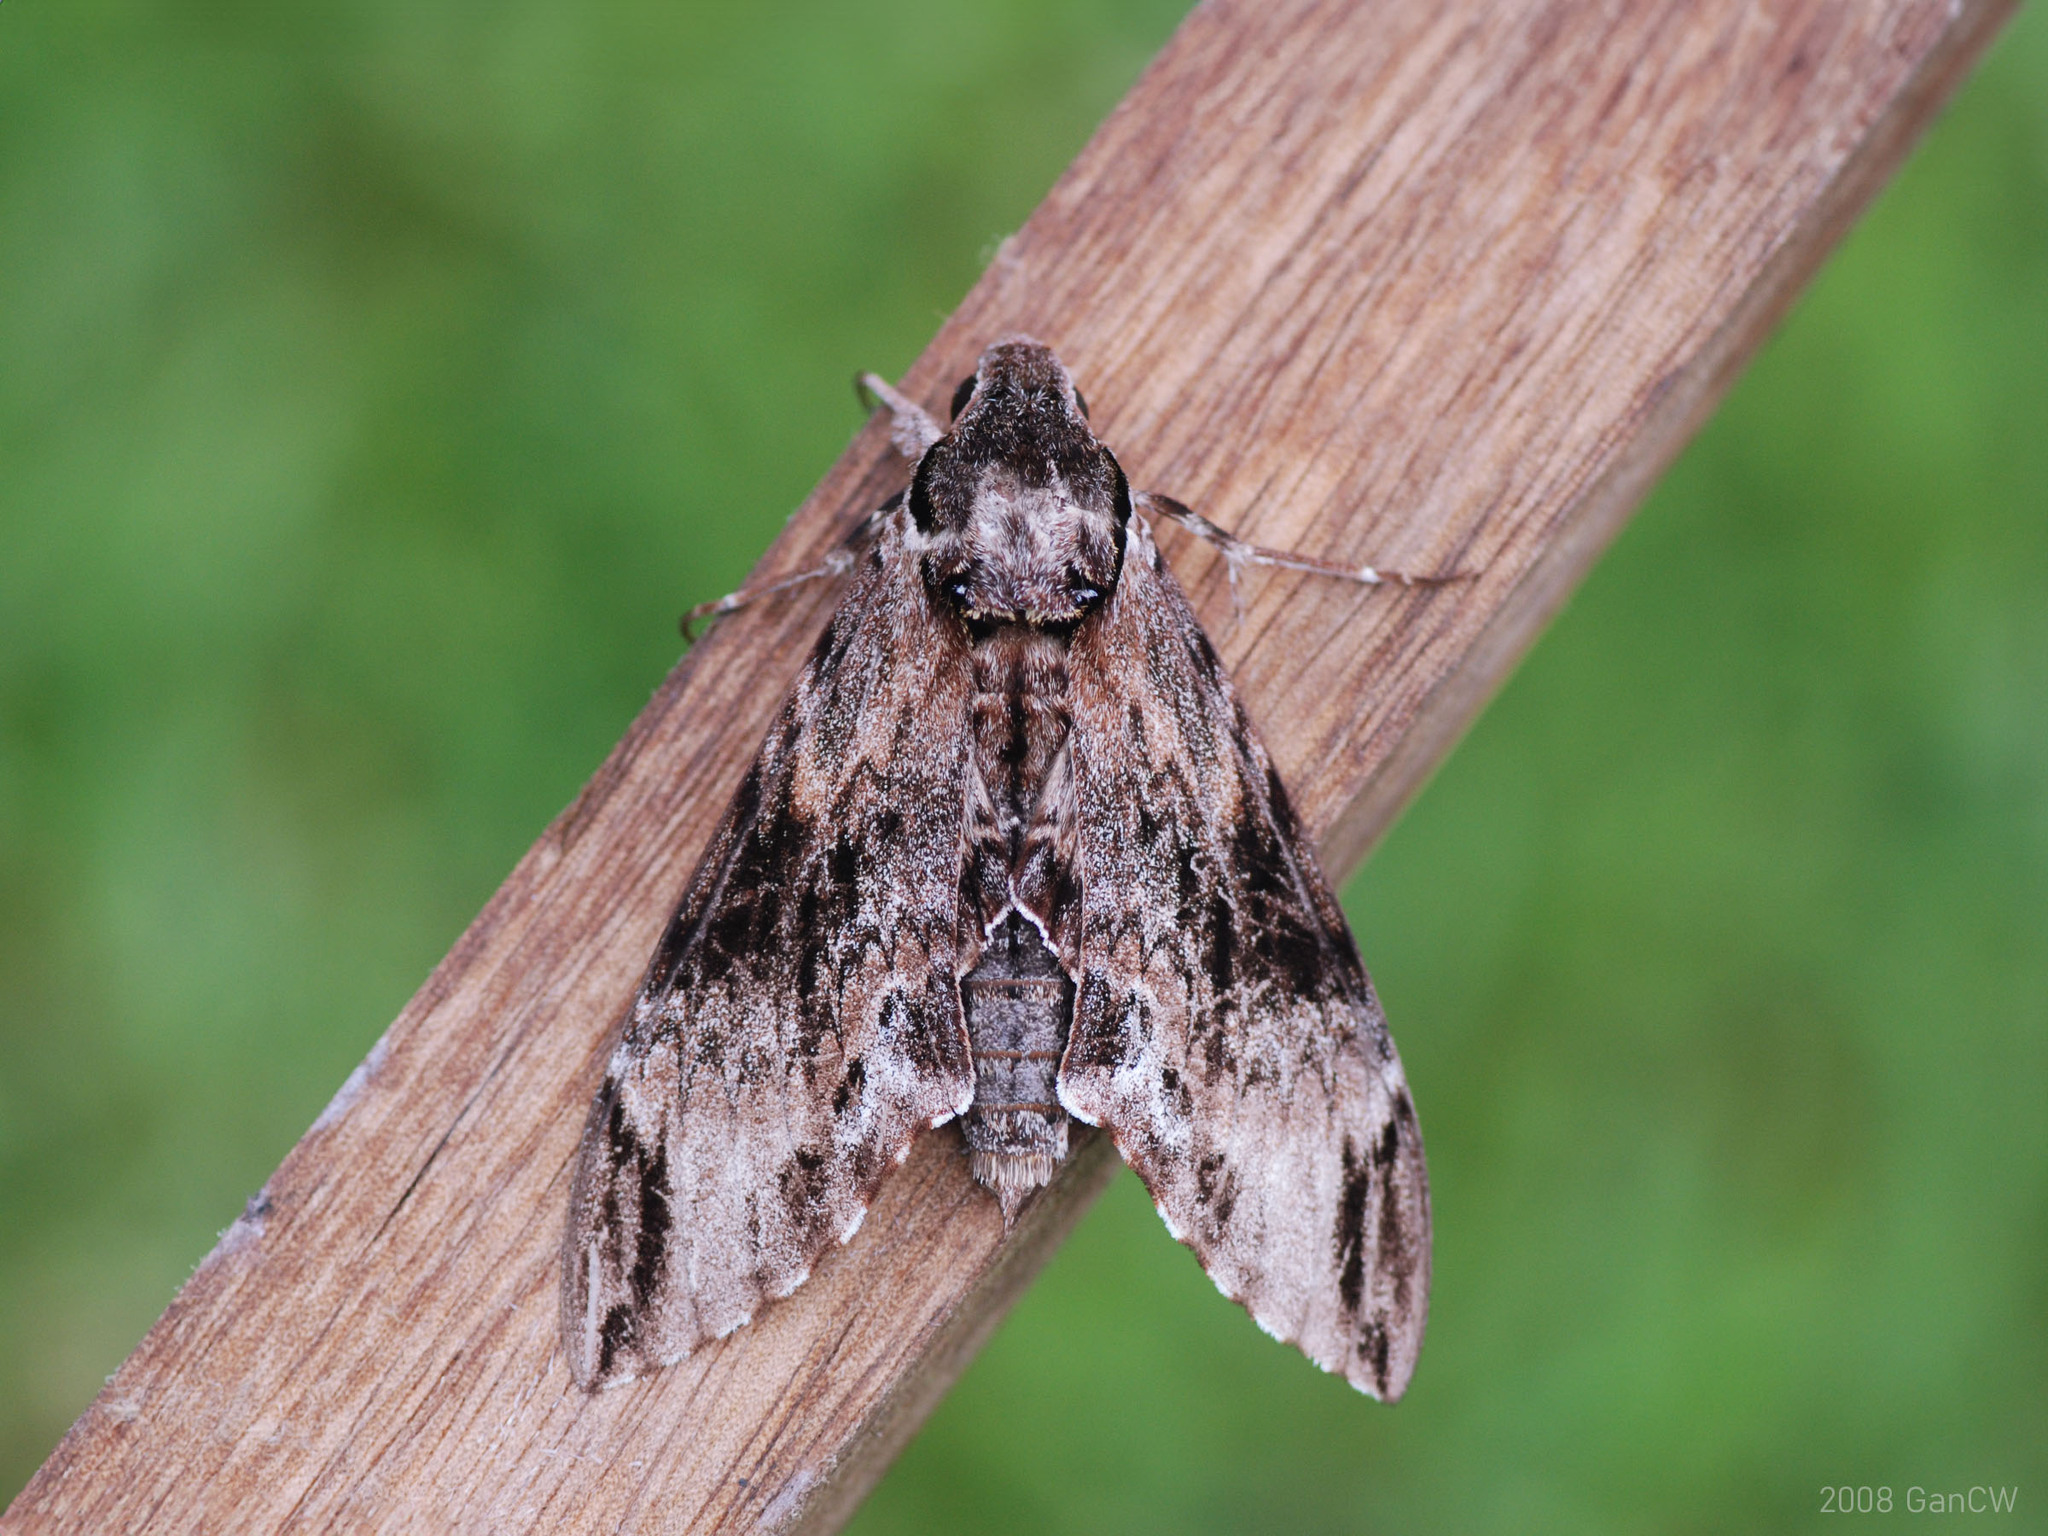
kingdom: Animalia
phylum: Arthropoda
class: Insecta
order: Lepidoptera
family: Sphingidae
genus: Psilogramma
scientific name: Psilogramma menephron
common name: Gray hawk moth
